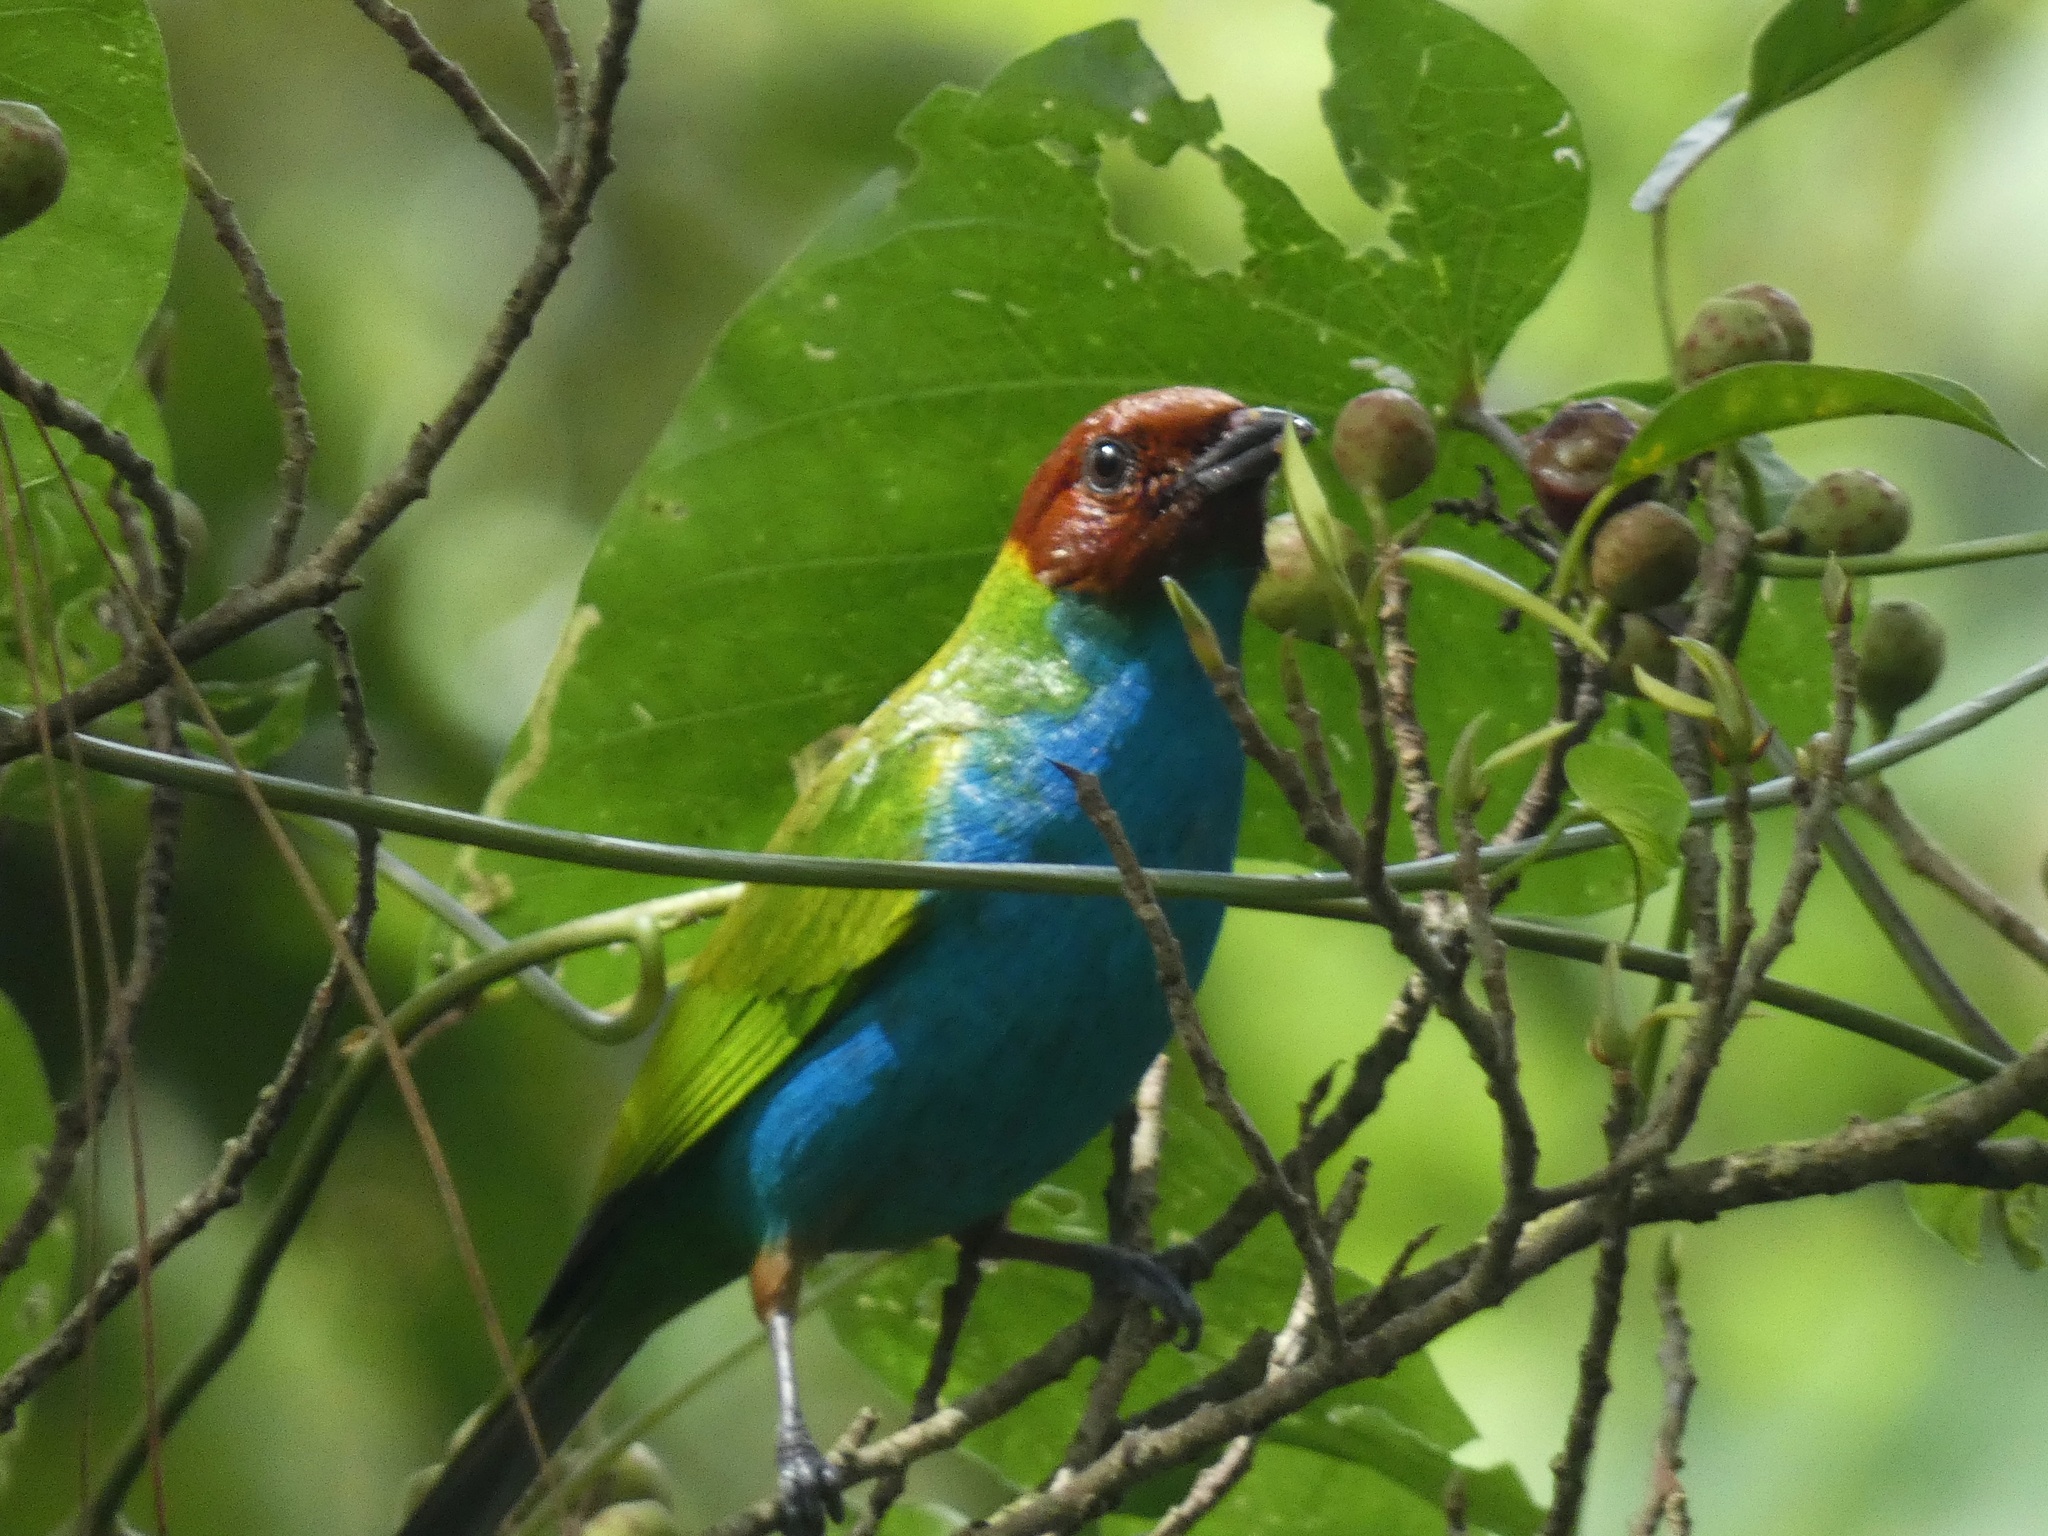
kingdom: Animalia
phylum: Chordata
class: Aves
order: Passeriformes
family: Thraupidae
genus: Tangara
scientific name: Tangara gyrola
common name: Bay-headed tanager
